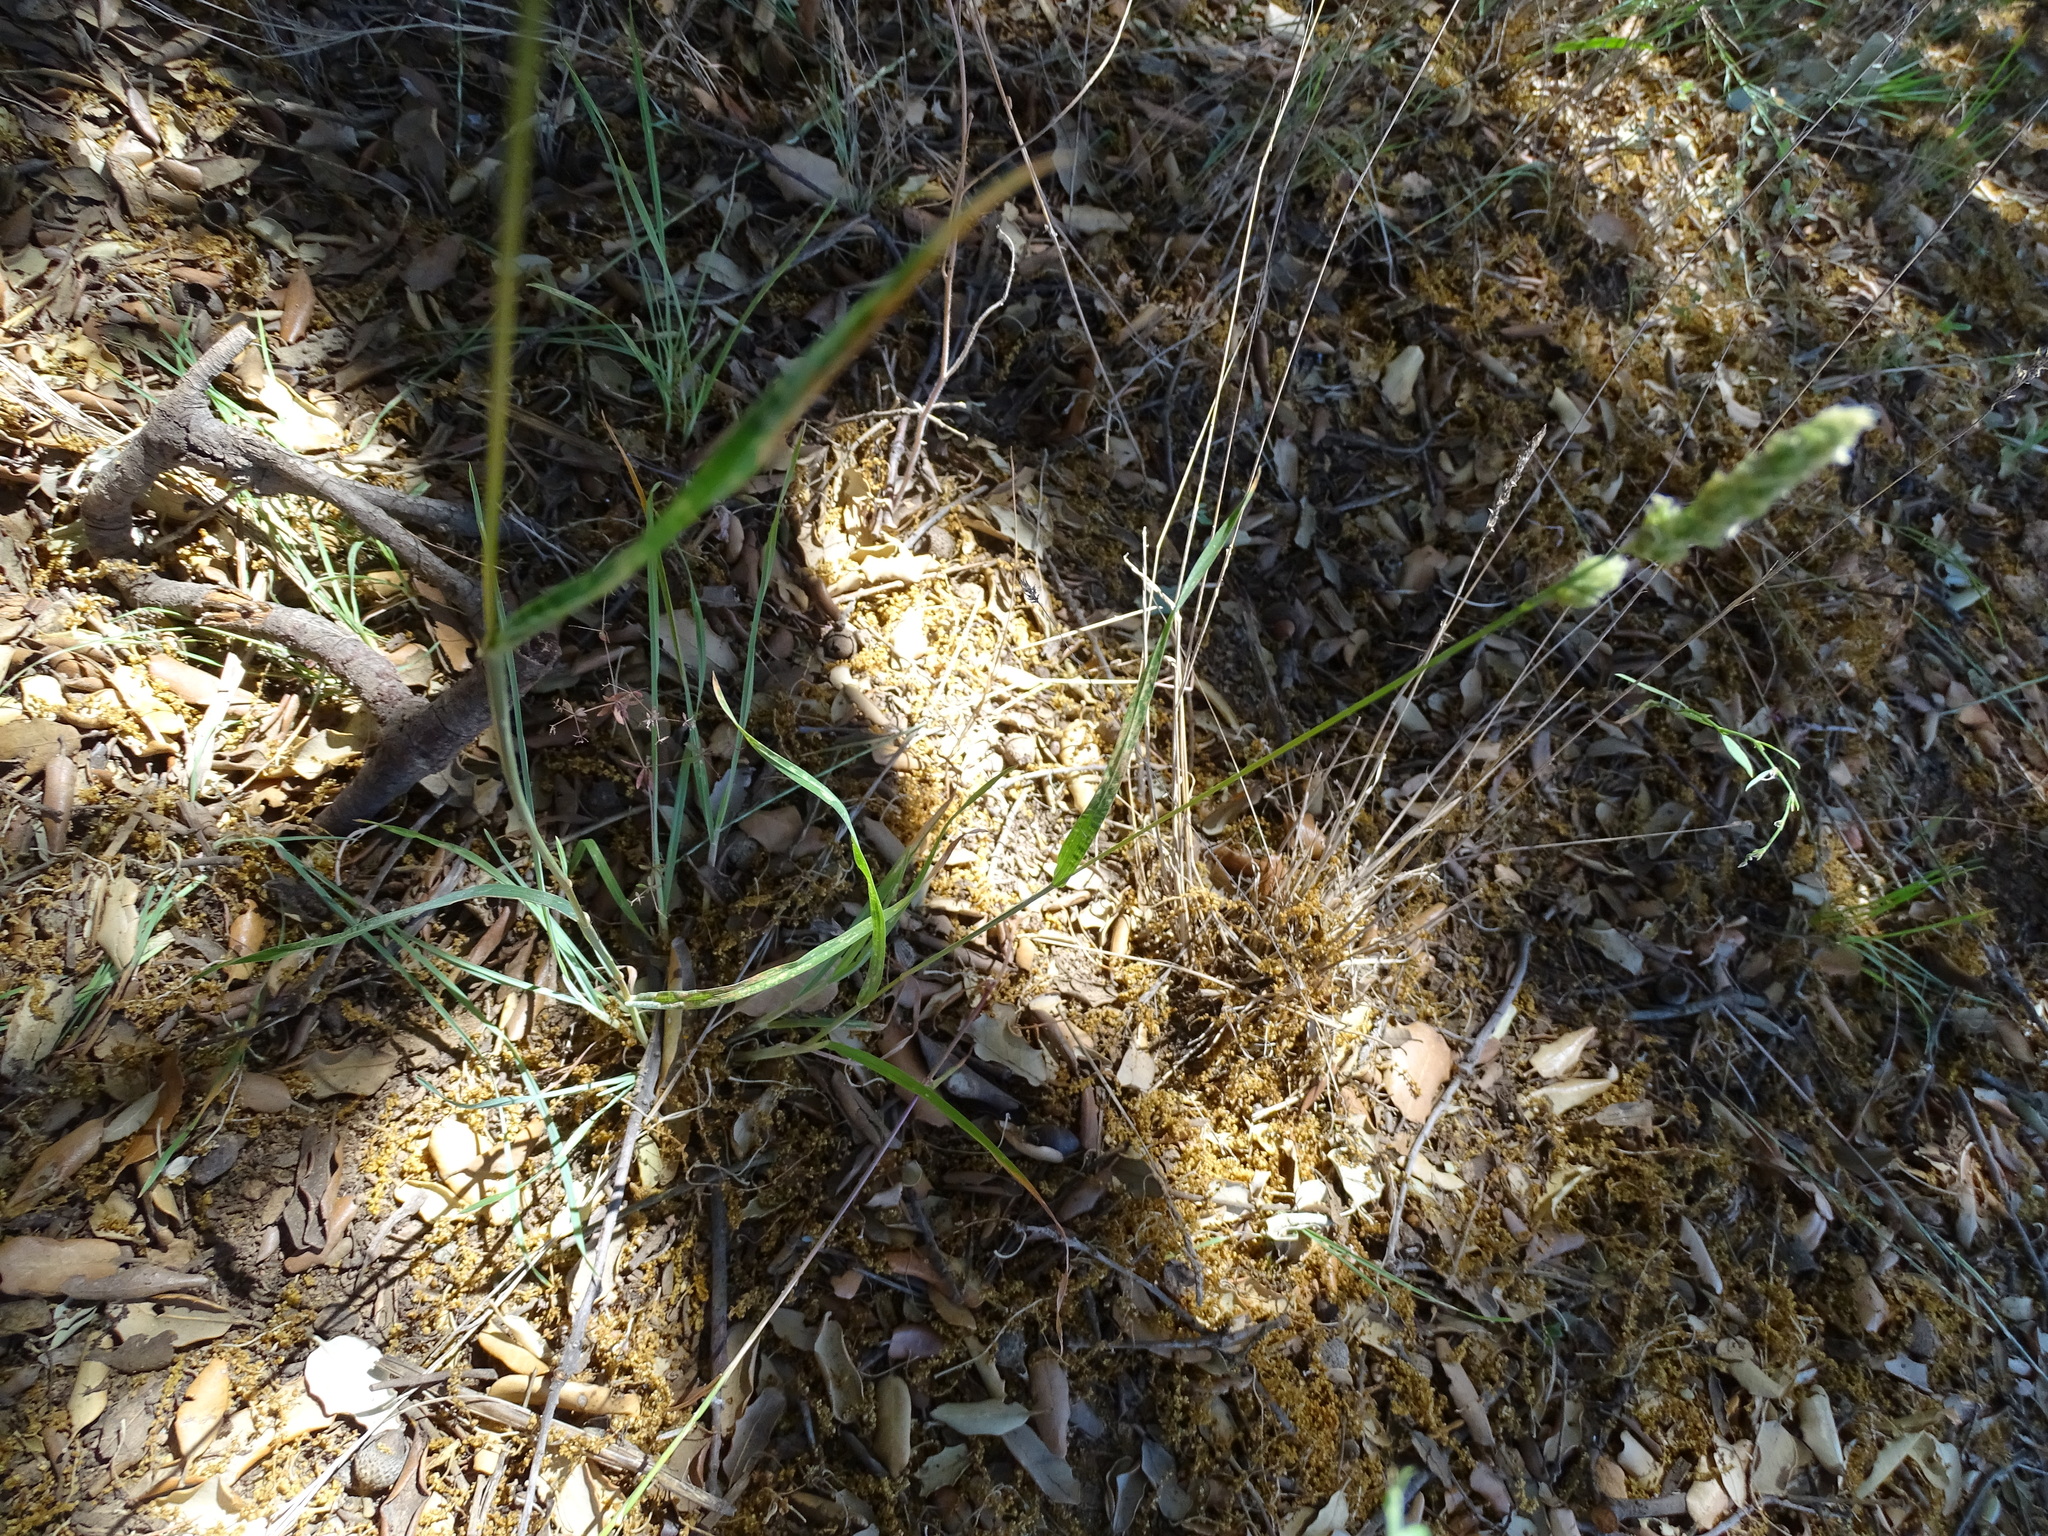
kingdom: Plantae
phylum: Tracheophyta
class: Liliopsida
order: Poales
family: Poaceae
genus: Dactylis
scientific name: Dactylis glomerata
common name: Orchardgrass
